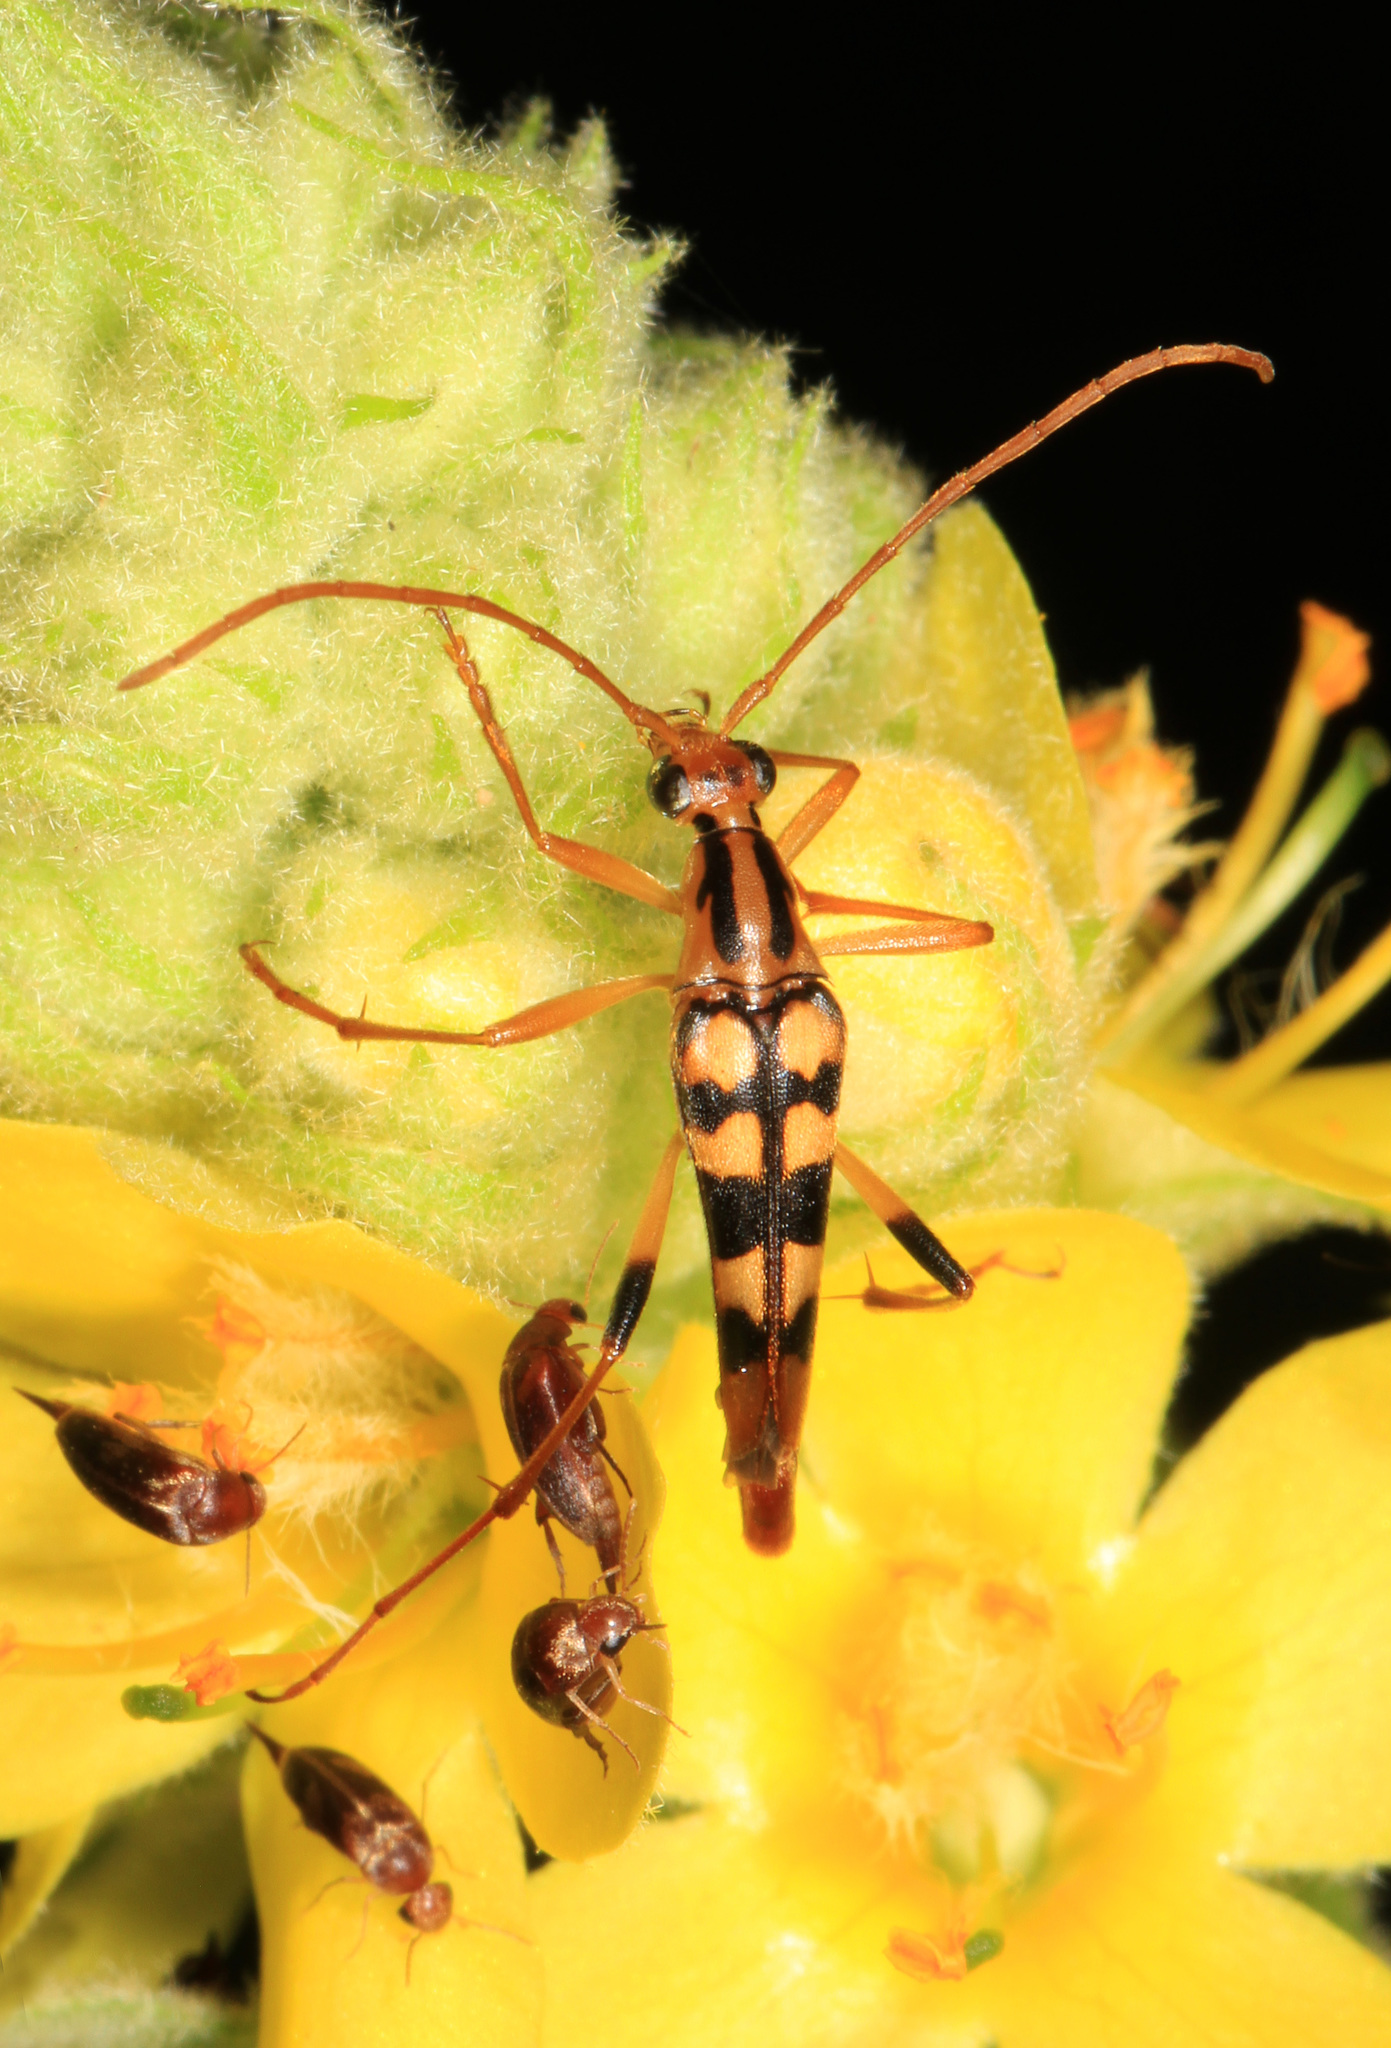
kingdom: Animalia
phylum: Arthropoda
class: Insecta
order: Coleoptera
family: Cerambycidae
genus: Strangalia
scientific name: Strangalia luteicornis
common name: Yellow-horned flower longhorn beetle
